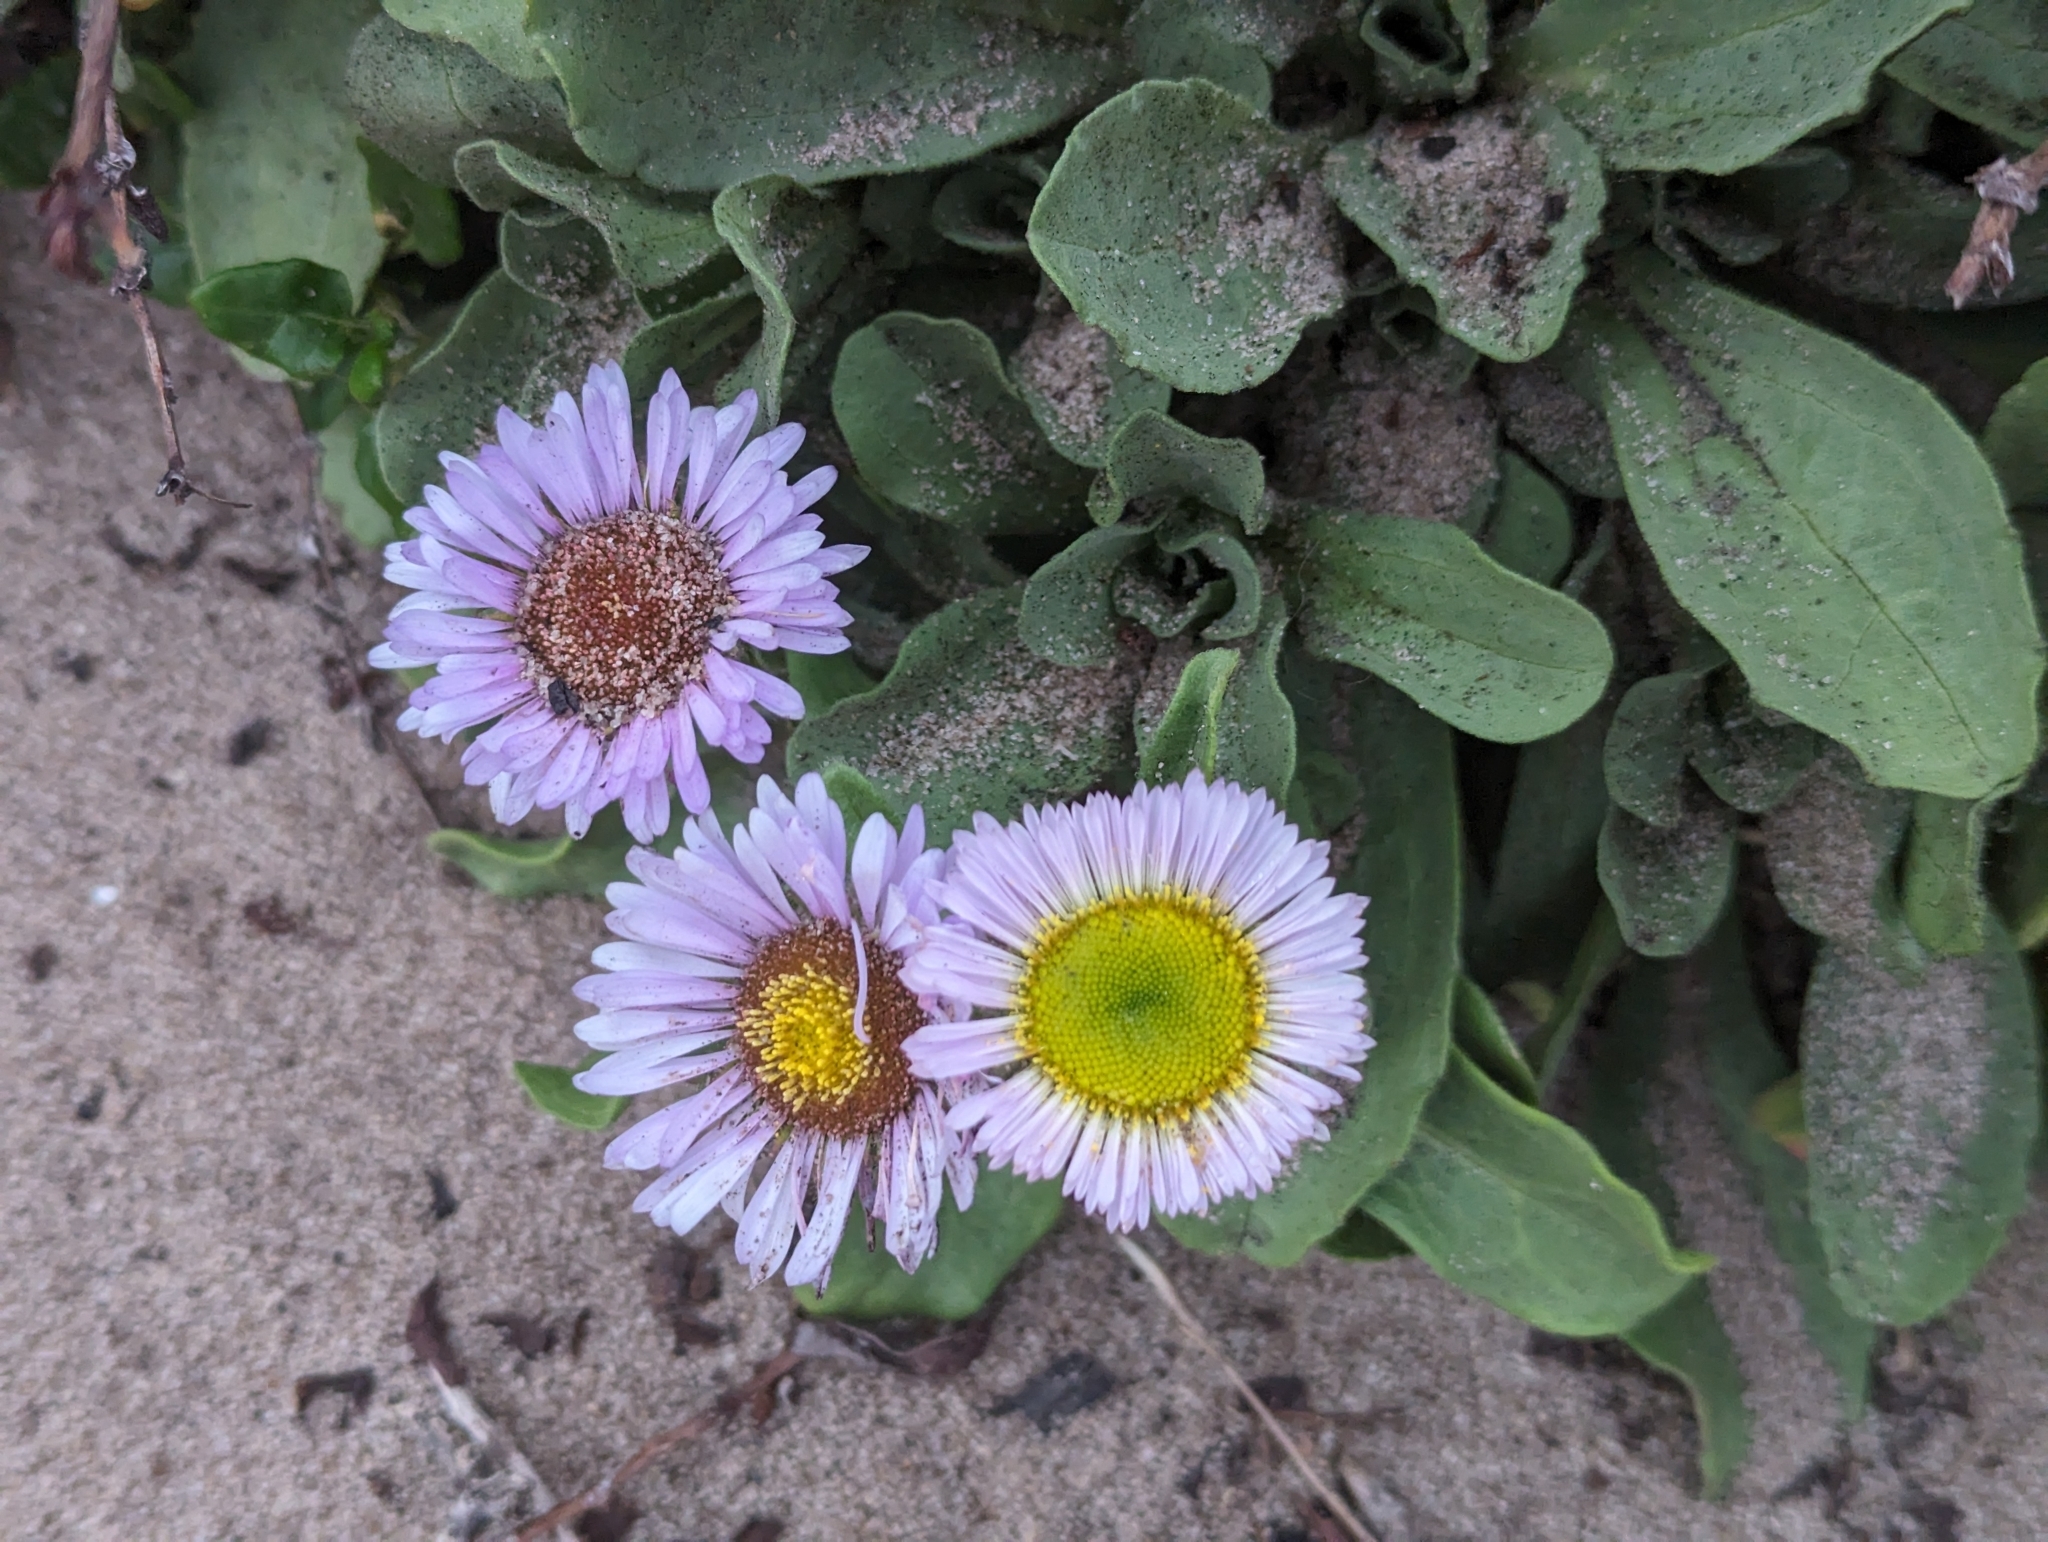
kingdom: Plantae
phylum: Tracheophyta
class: Magnoliopsida
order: Asterales
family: Asteraceae
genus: Erigeron
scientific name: Erigeron glaucus
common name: Seaside daisy
